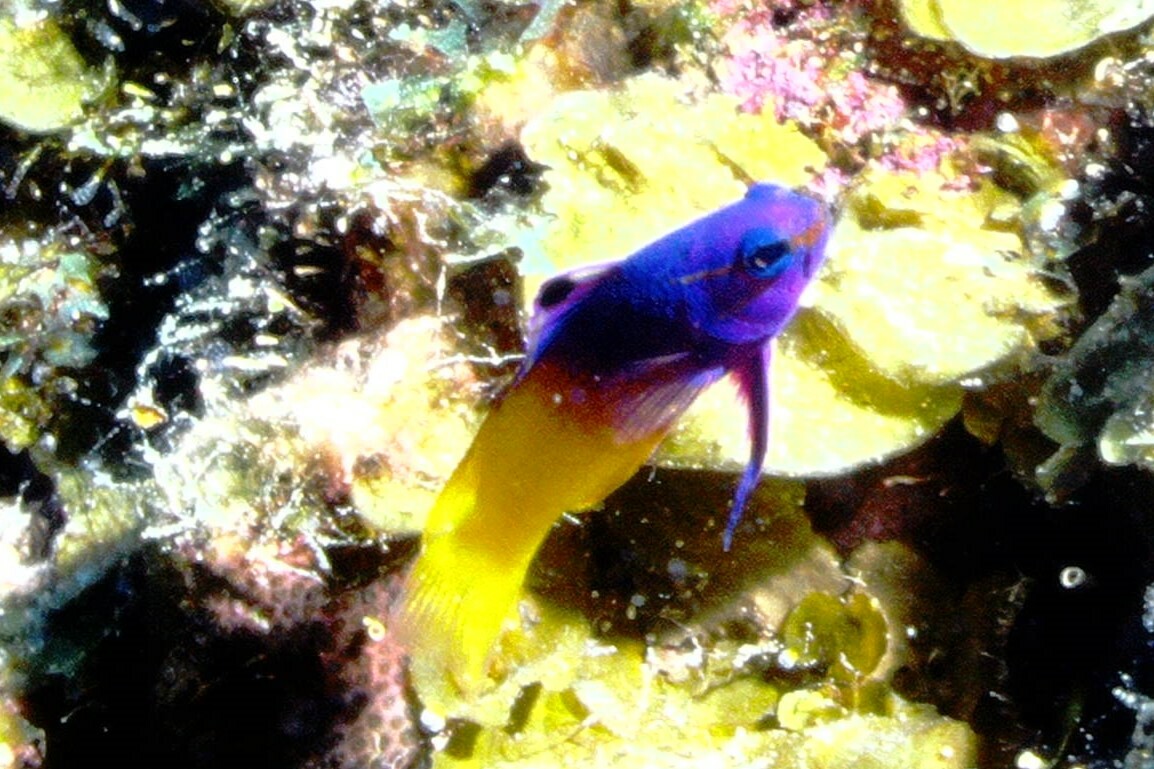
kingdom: Animalia
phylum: Chordata
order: Perciformes
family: Grammatidae
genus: Gramma
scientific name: Gramma loreto
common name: Fairy basslet
